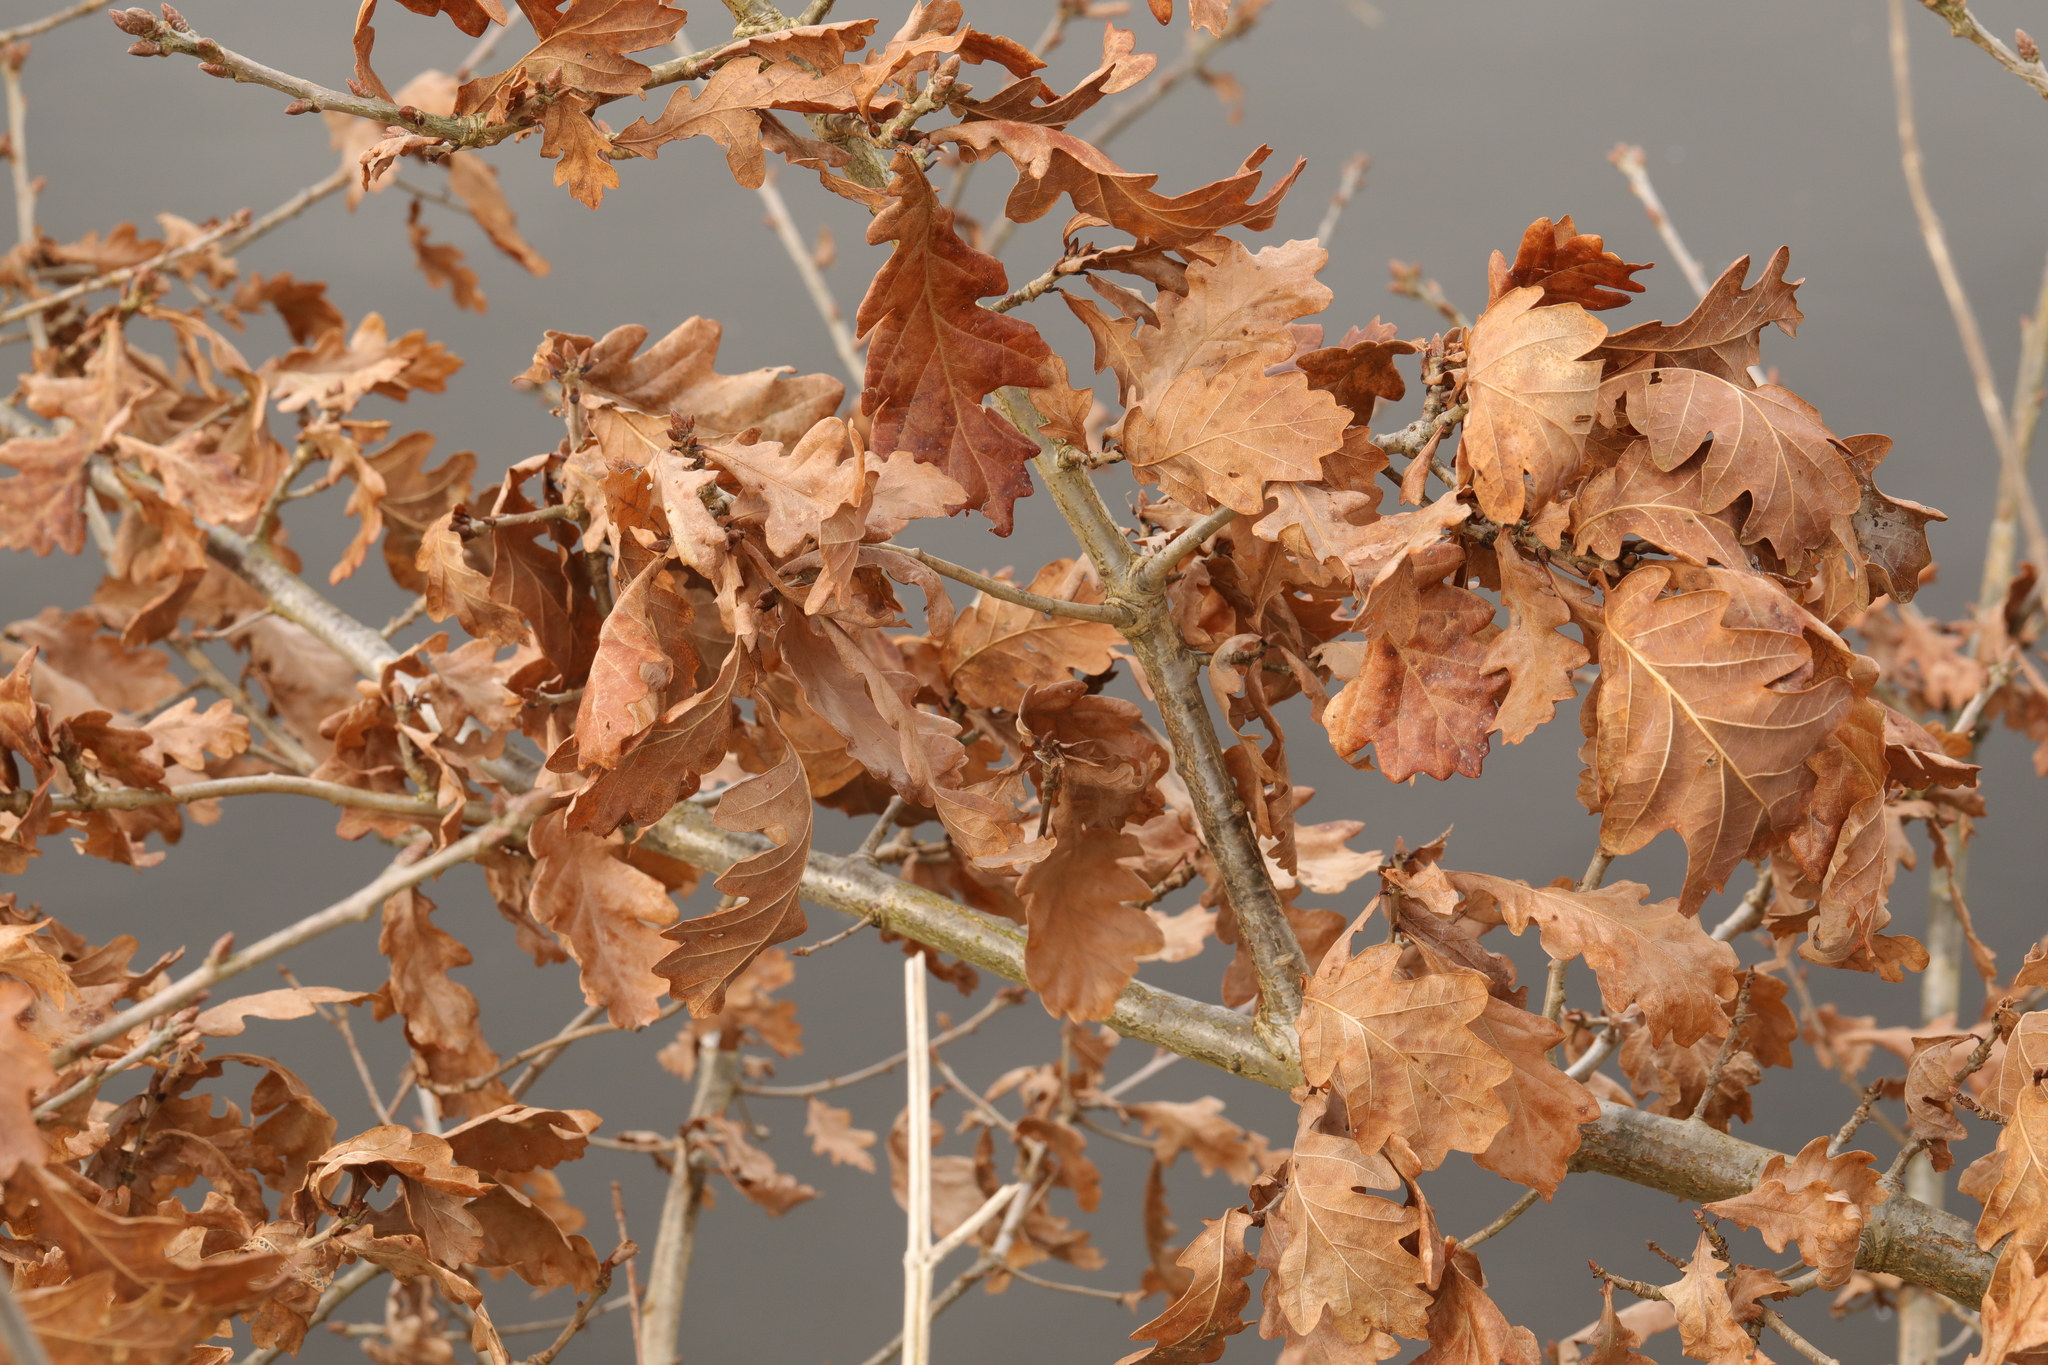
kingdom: Plantae
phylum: Tracheophyta
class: Magnoliopsida
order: Fagales
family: Fagaceae
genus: Quercus
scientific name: Quercus robur
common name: Pedunculate oak
